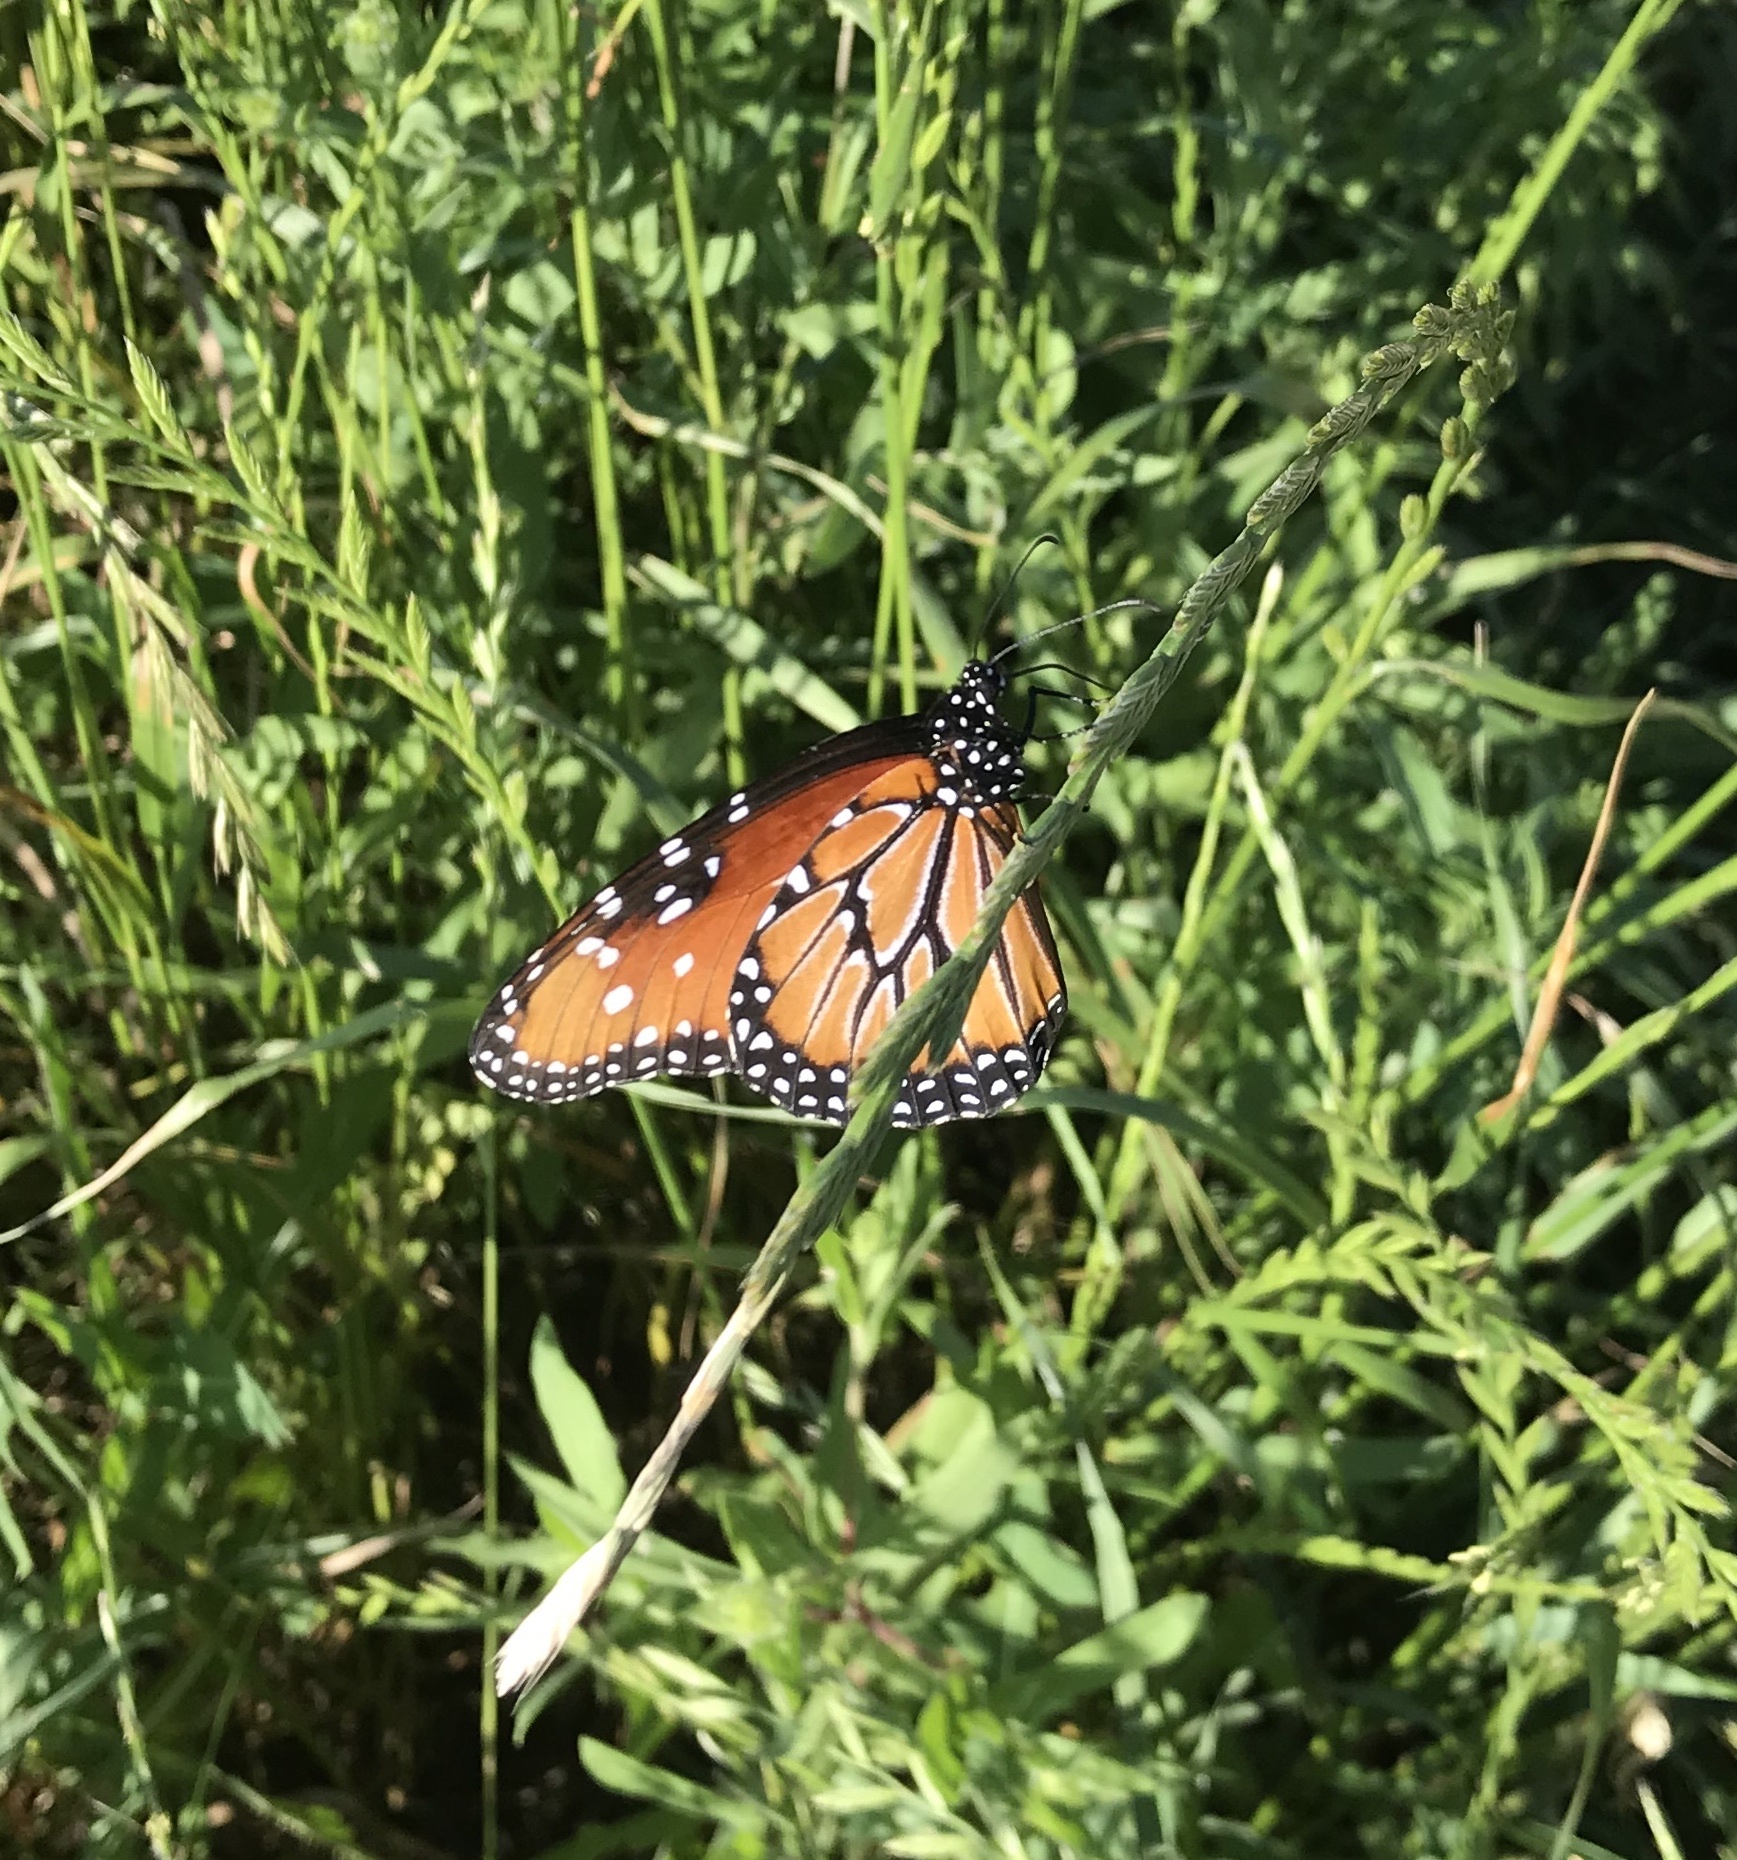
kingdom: Animalia
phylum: Arthropoda
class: Insecta
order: Lepidoptera
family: Nymphalidae
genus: Danaus
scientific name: Danaus gilippus
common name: Queen
